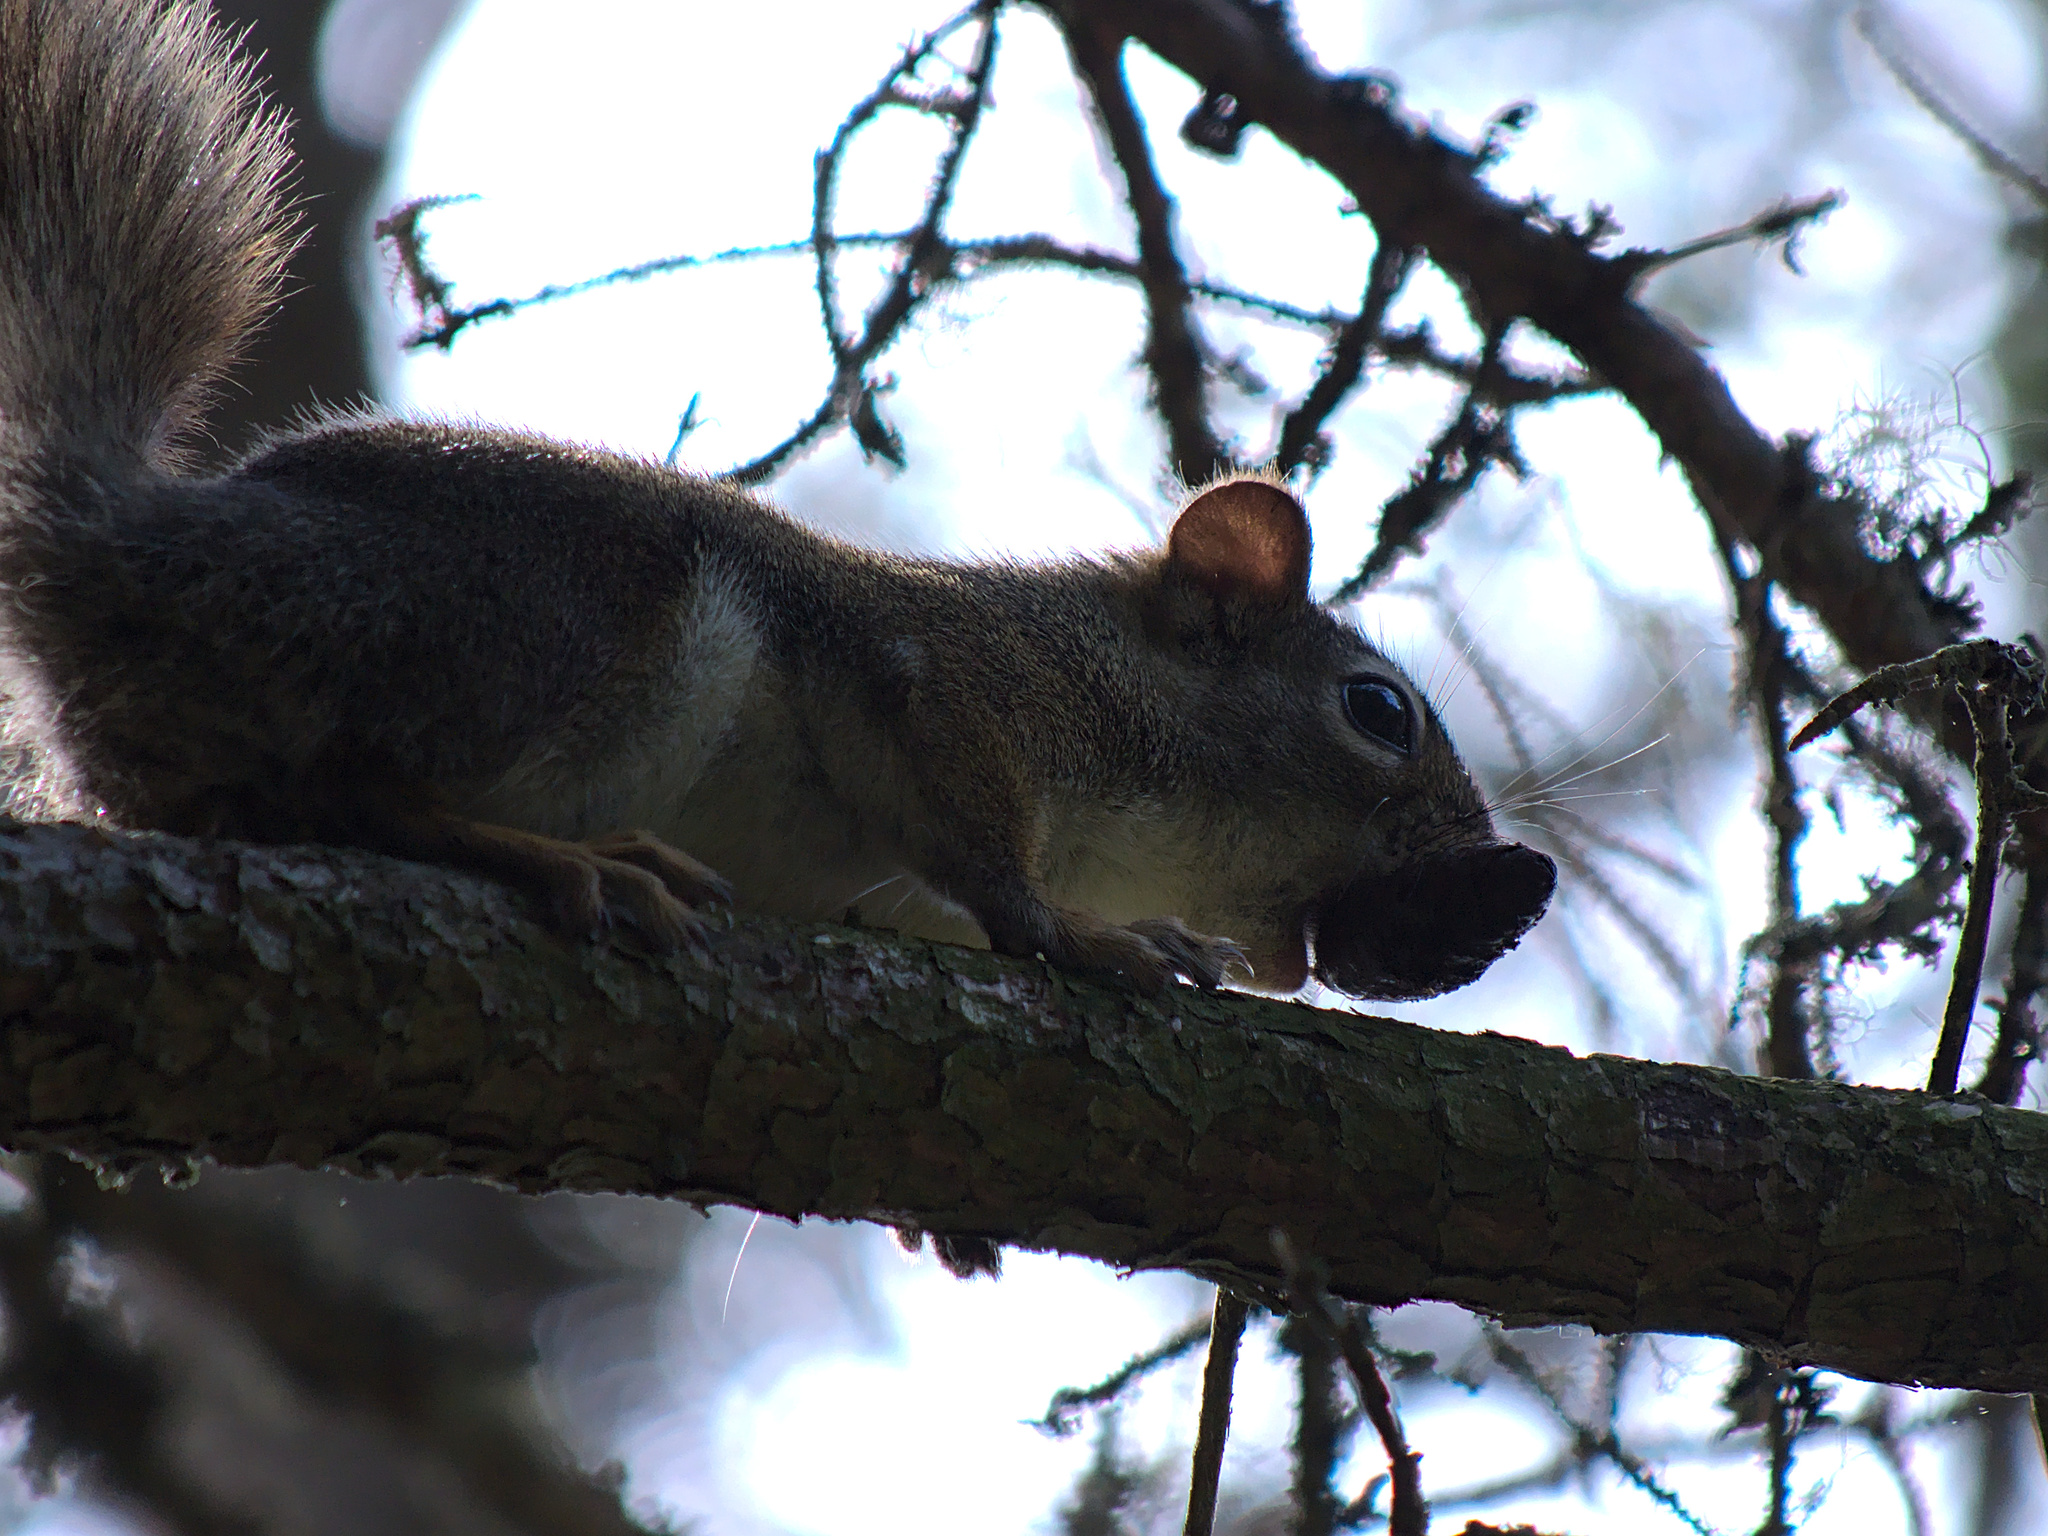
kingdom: Animalia
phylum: Chordata
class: Mammalia
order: Rodentia
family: Sciuridae
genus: Tamiasciurus
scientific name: Tamiasciurus hudsonicus
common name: Red squirrel
